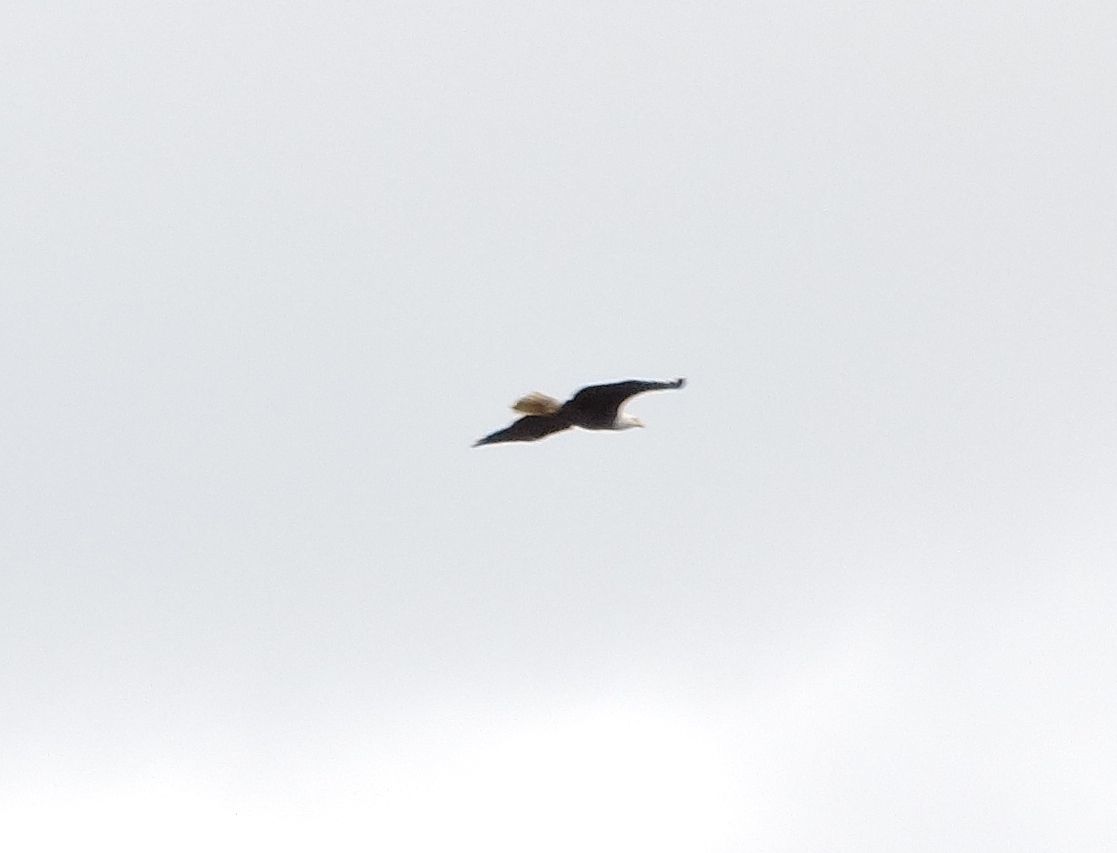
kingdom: Animalia
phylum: Chordata
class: Aves
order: Accipitriformes
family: Accipitridae
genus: Haliaeetus
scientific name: Haliaeetus leucocephalus
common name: Bald eagle
